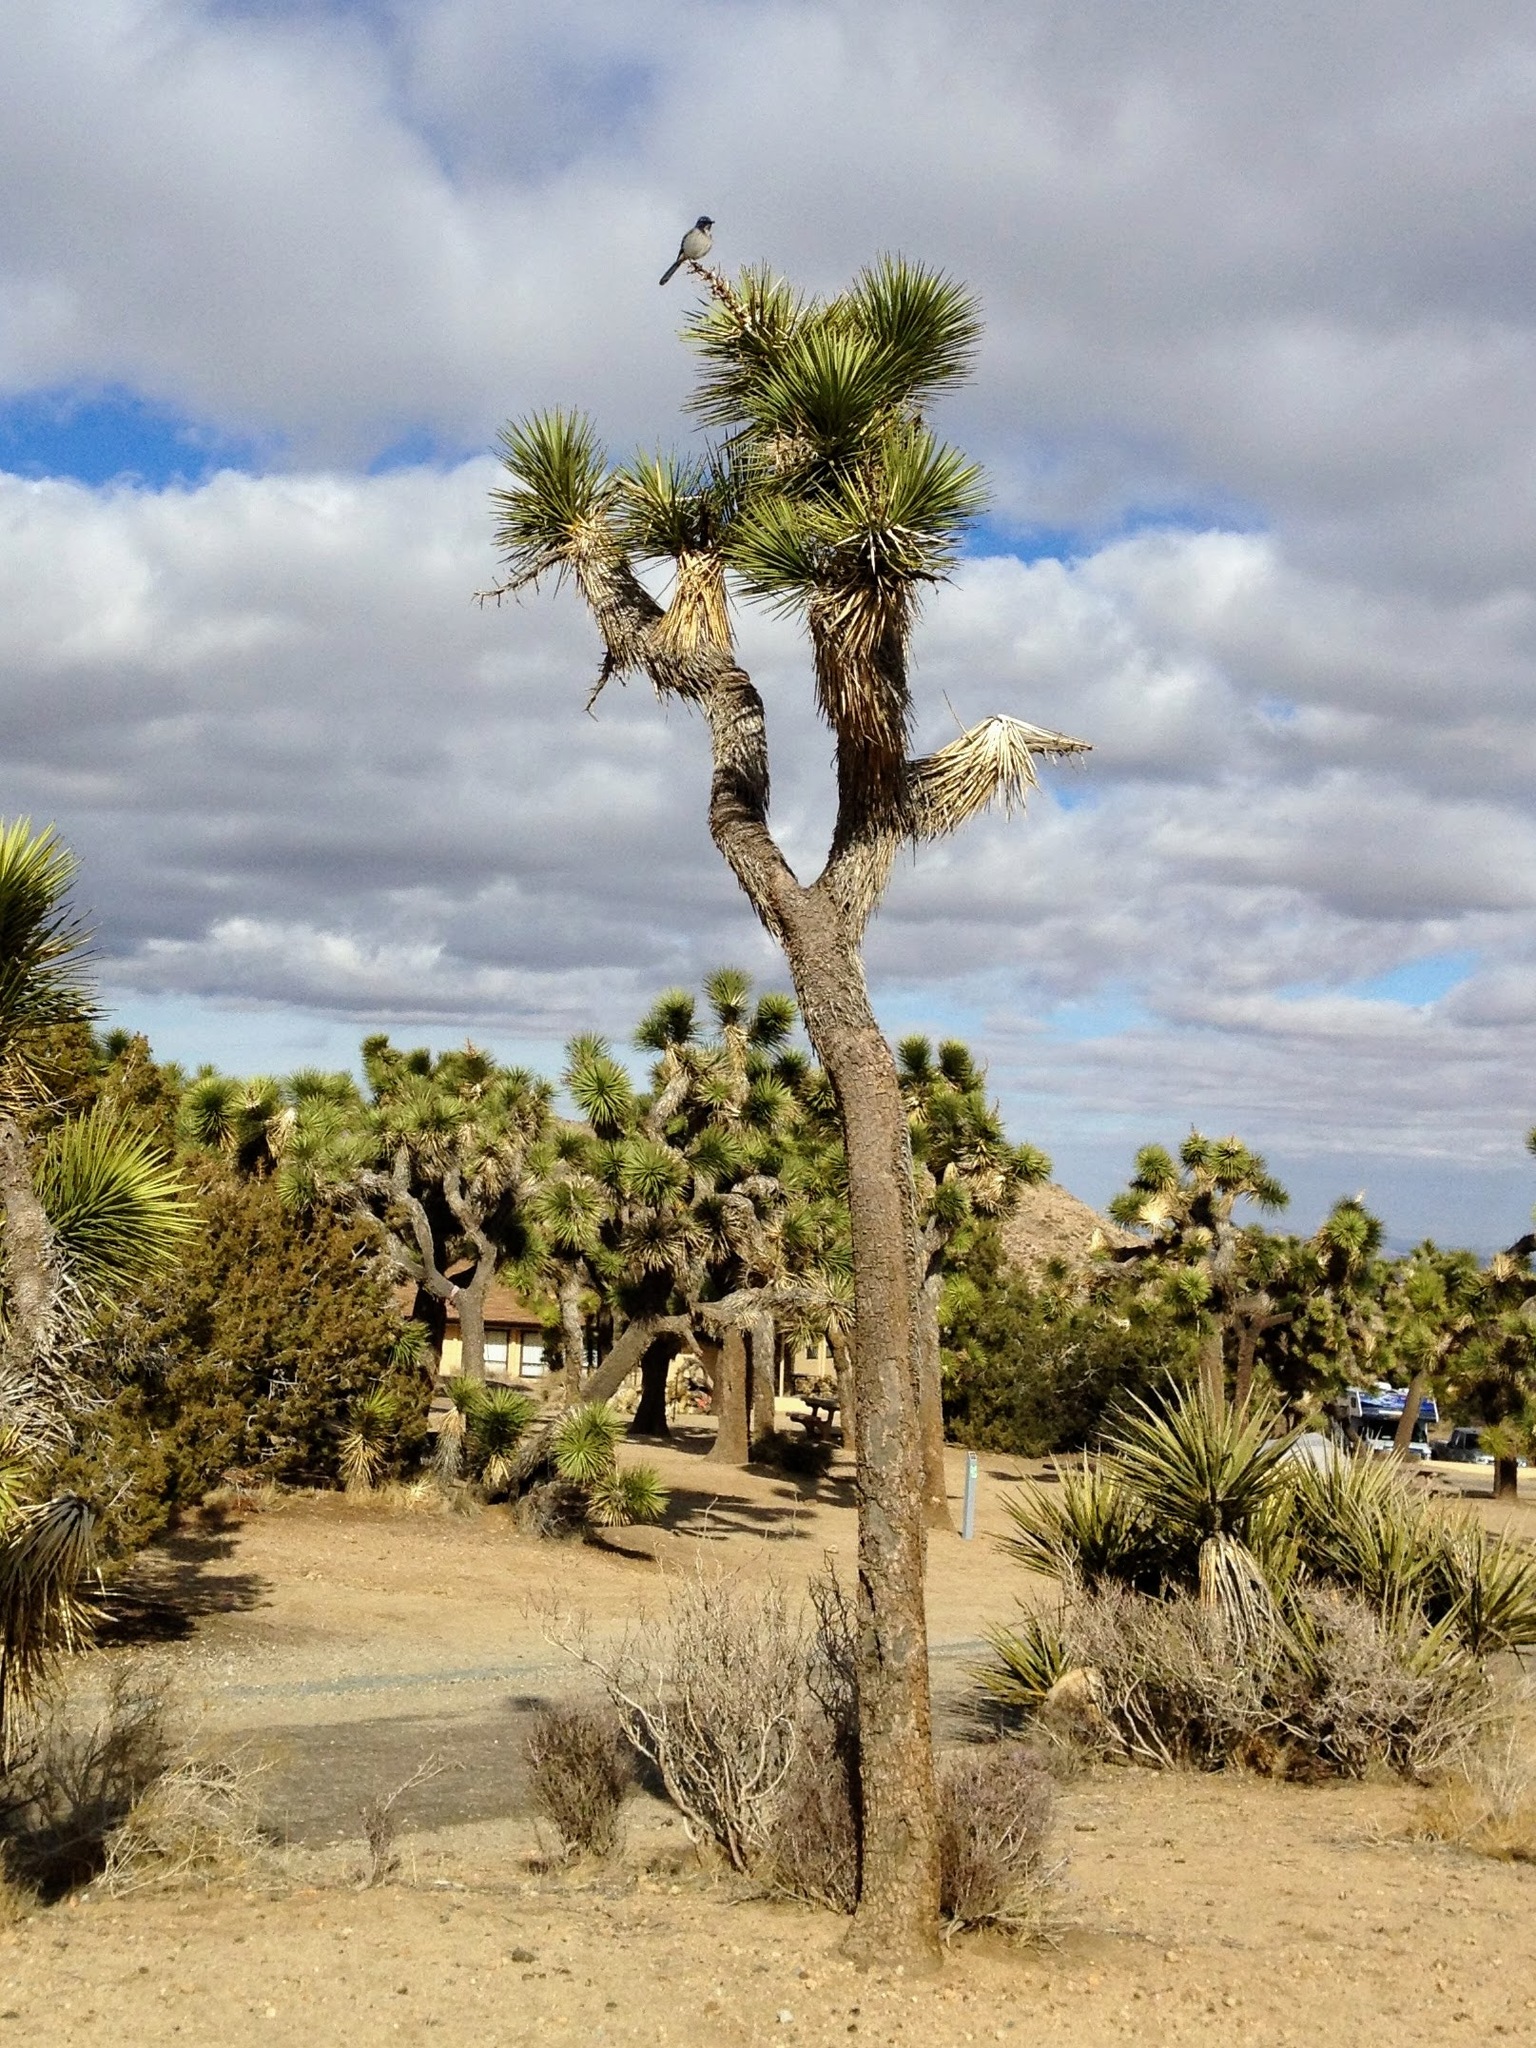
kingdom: Plantae
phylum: Tracheophyta
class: Liliopsida
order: Asparagales
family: Asparagaceae
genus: Yucca
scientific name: Yucca brevifolia
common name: Joshua tree
